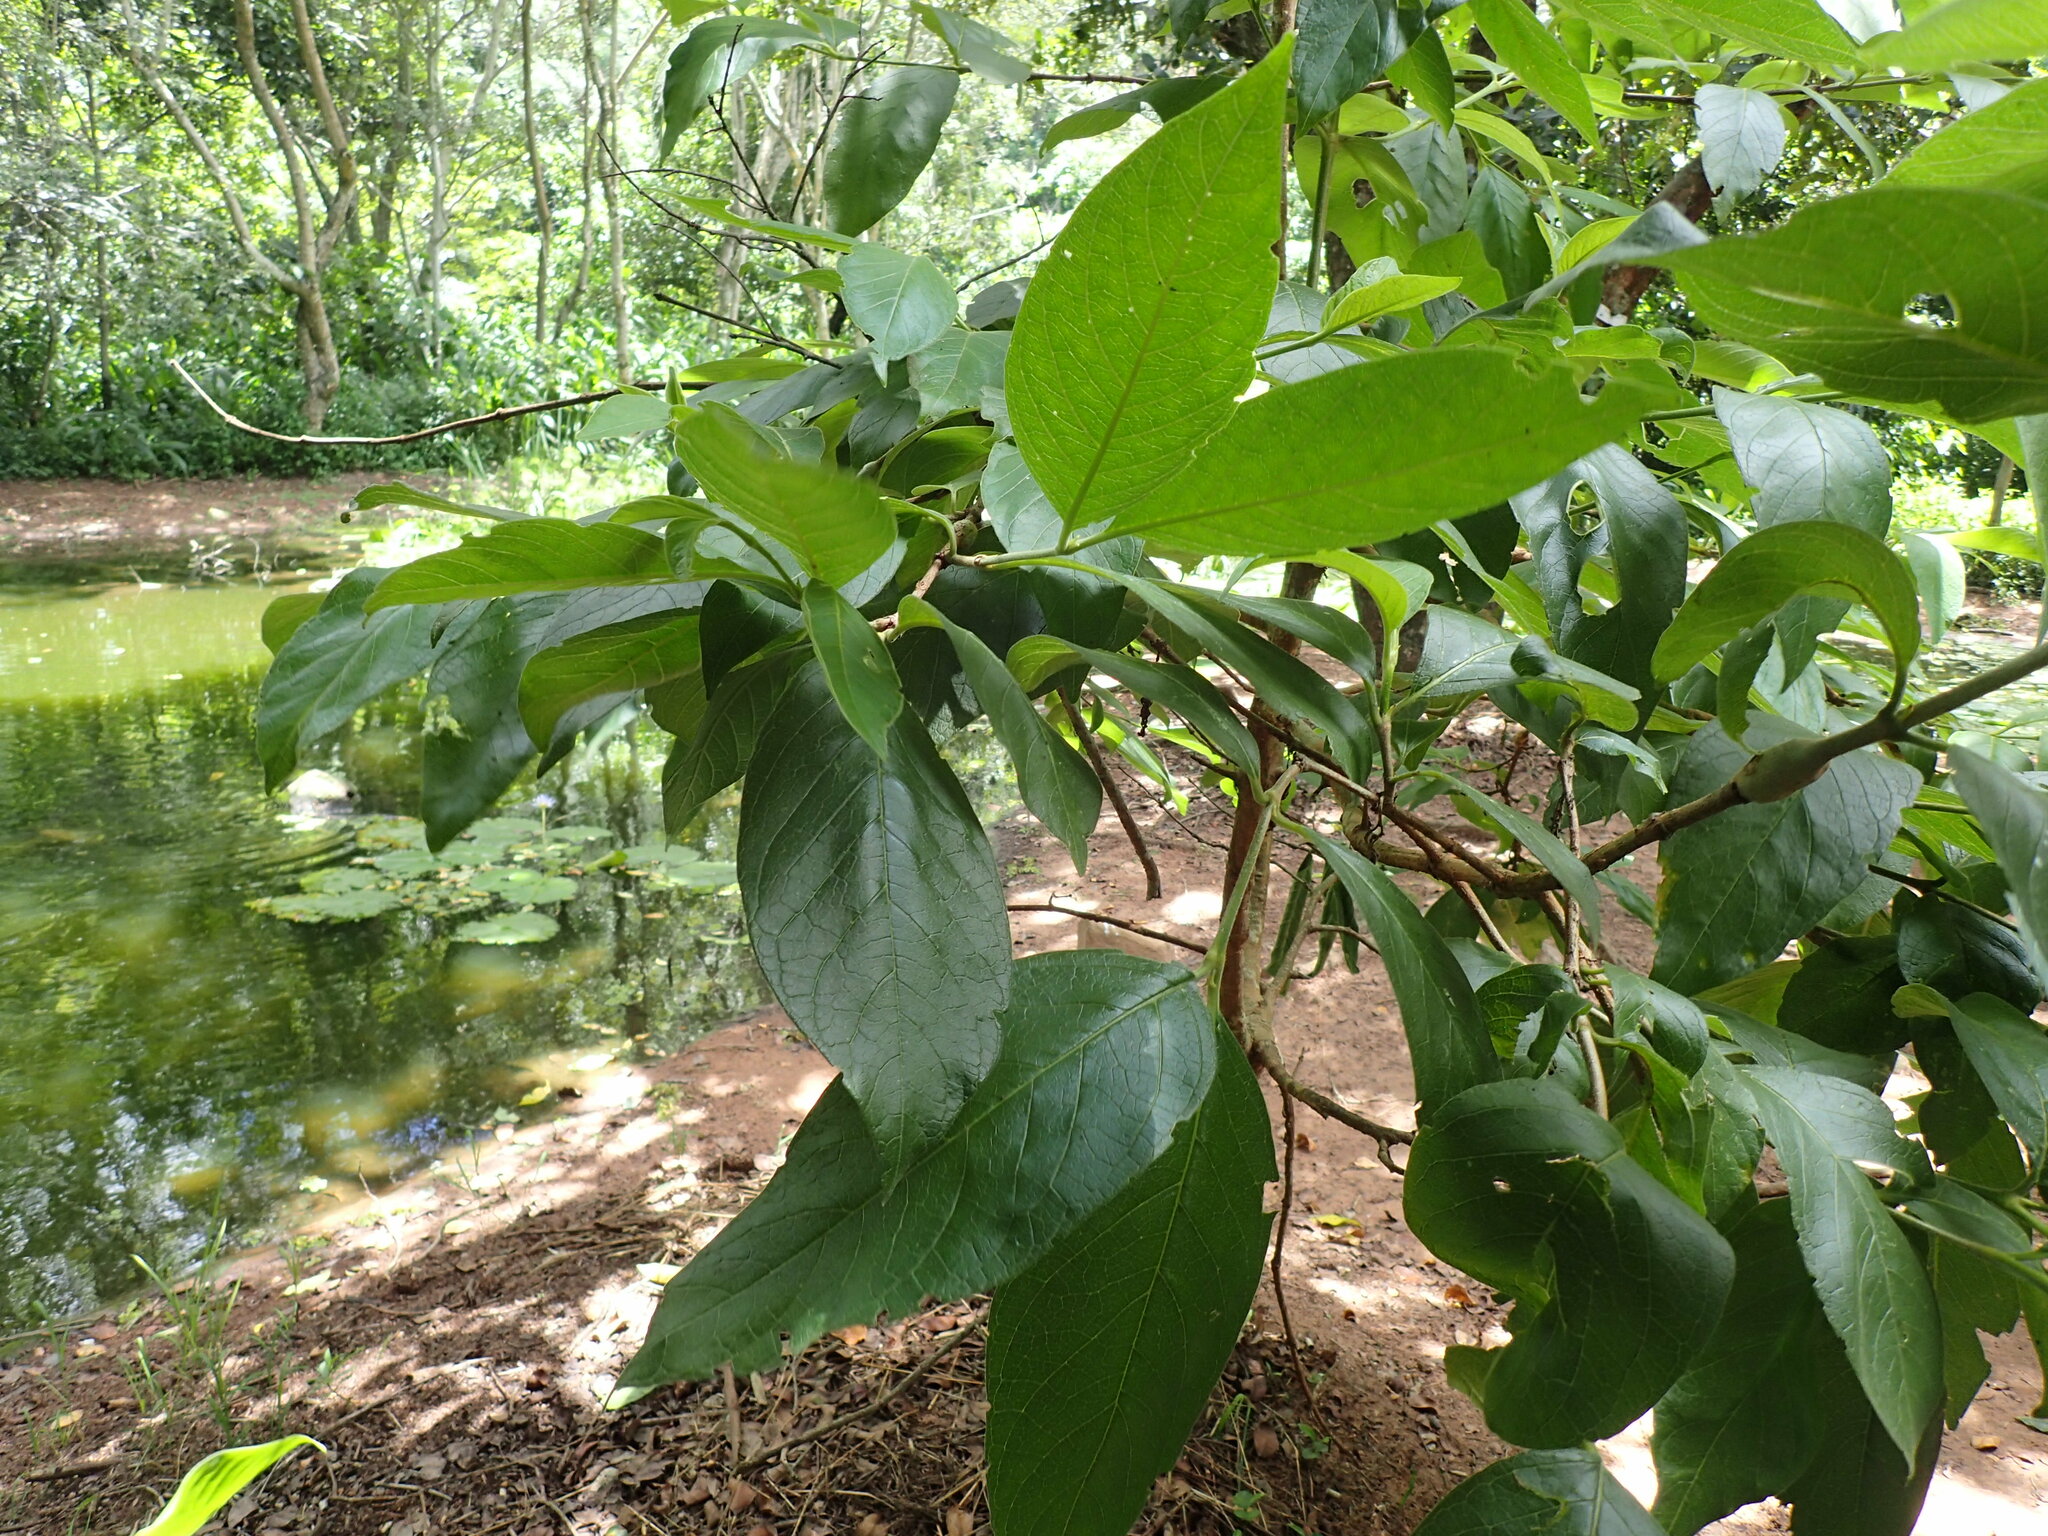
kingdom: Plantae
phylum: Tracheophyta
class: Magnoliopsida
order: Gentianales
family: Rubiaceae
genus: Vangueria
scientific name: Vangueria infausta
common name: Medlar
